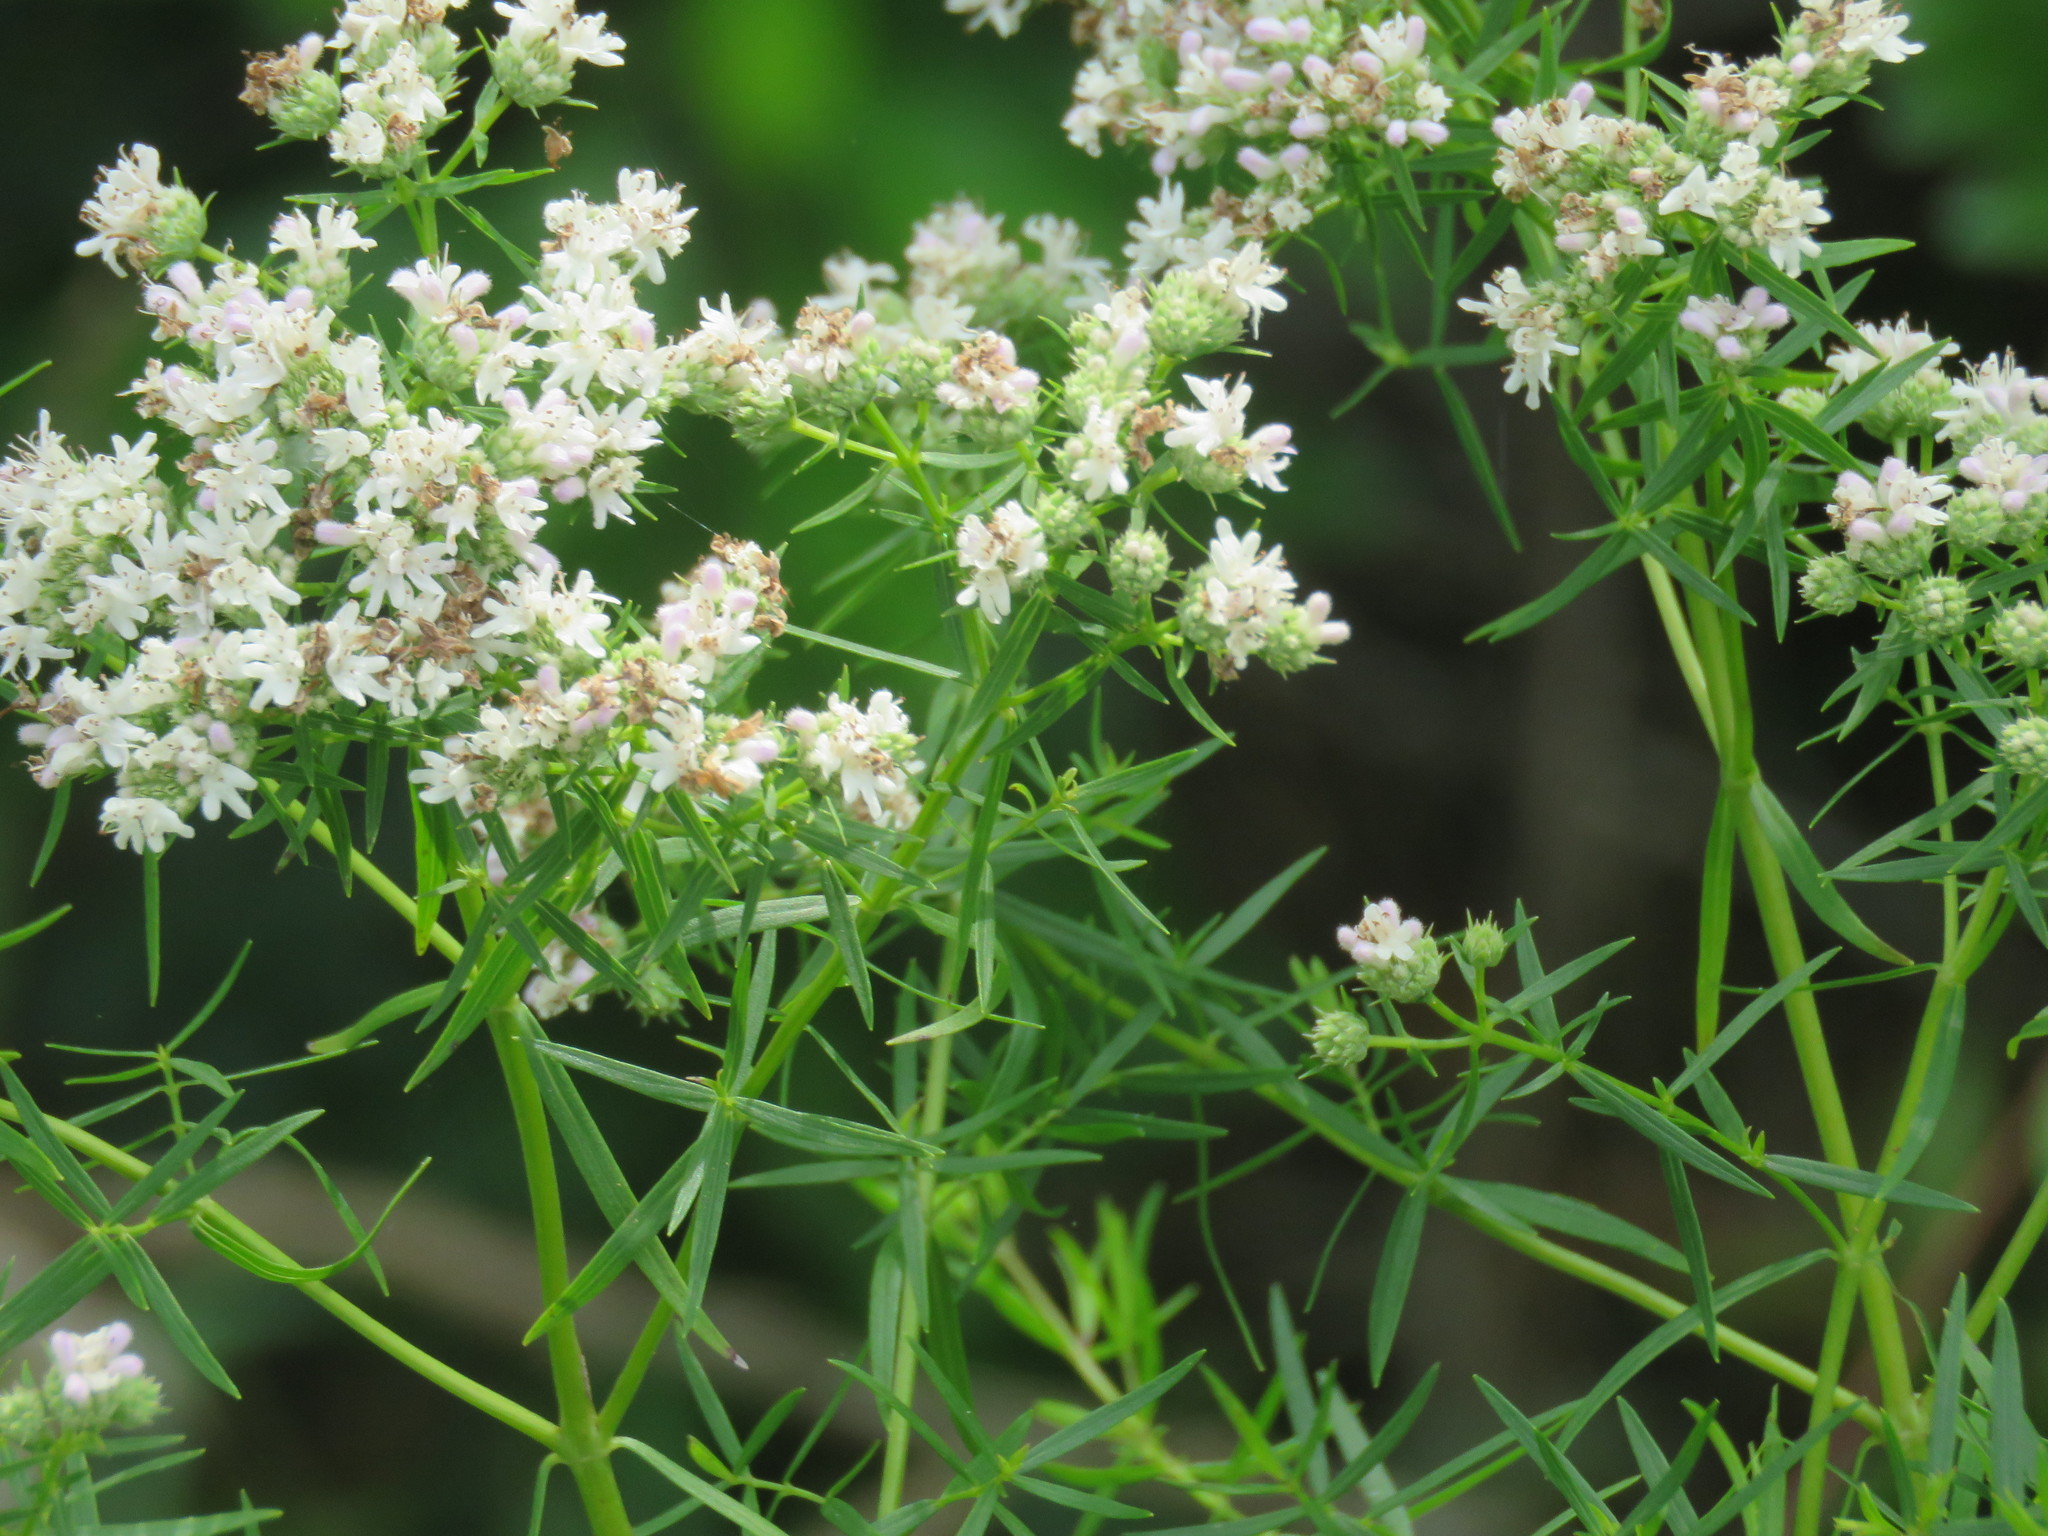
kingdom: Plantae
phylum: Tracheophyta
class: Magnoliopsida
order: Lamiales
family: Lamiaceae
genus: Pycnanthemum
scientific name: Pycnanthemum tenuifolium
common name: Narrow-leaf mountain-mint
